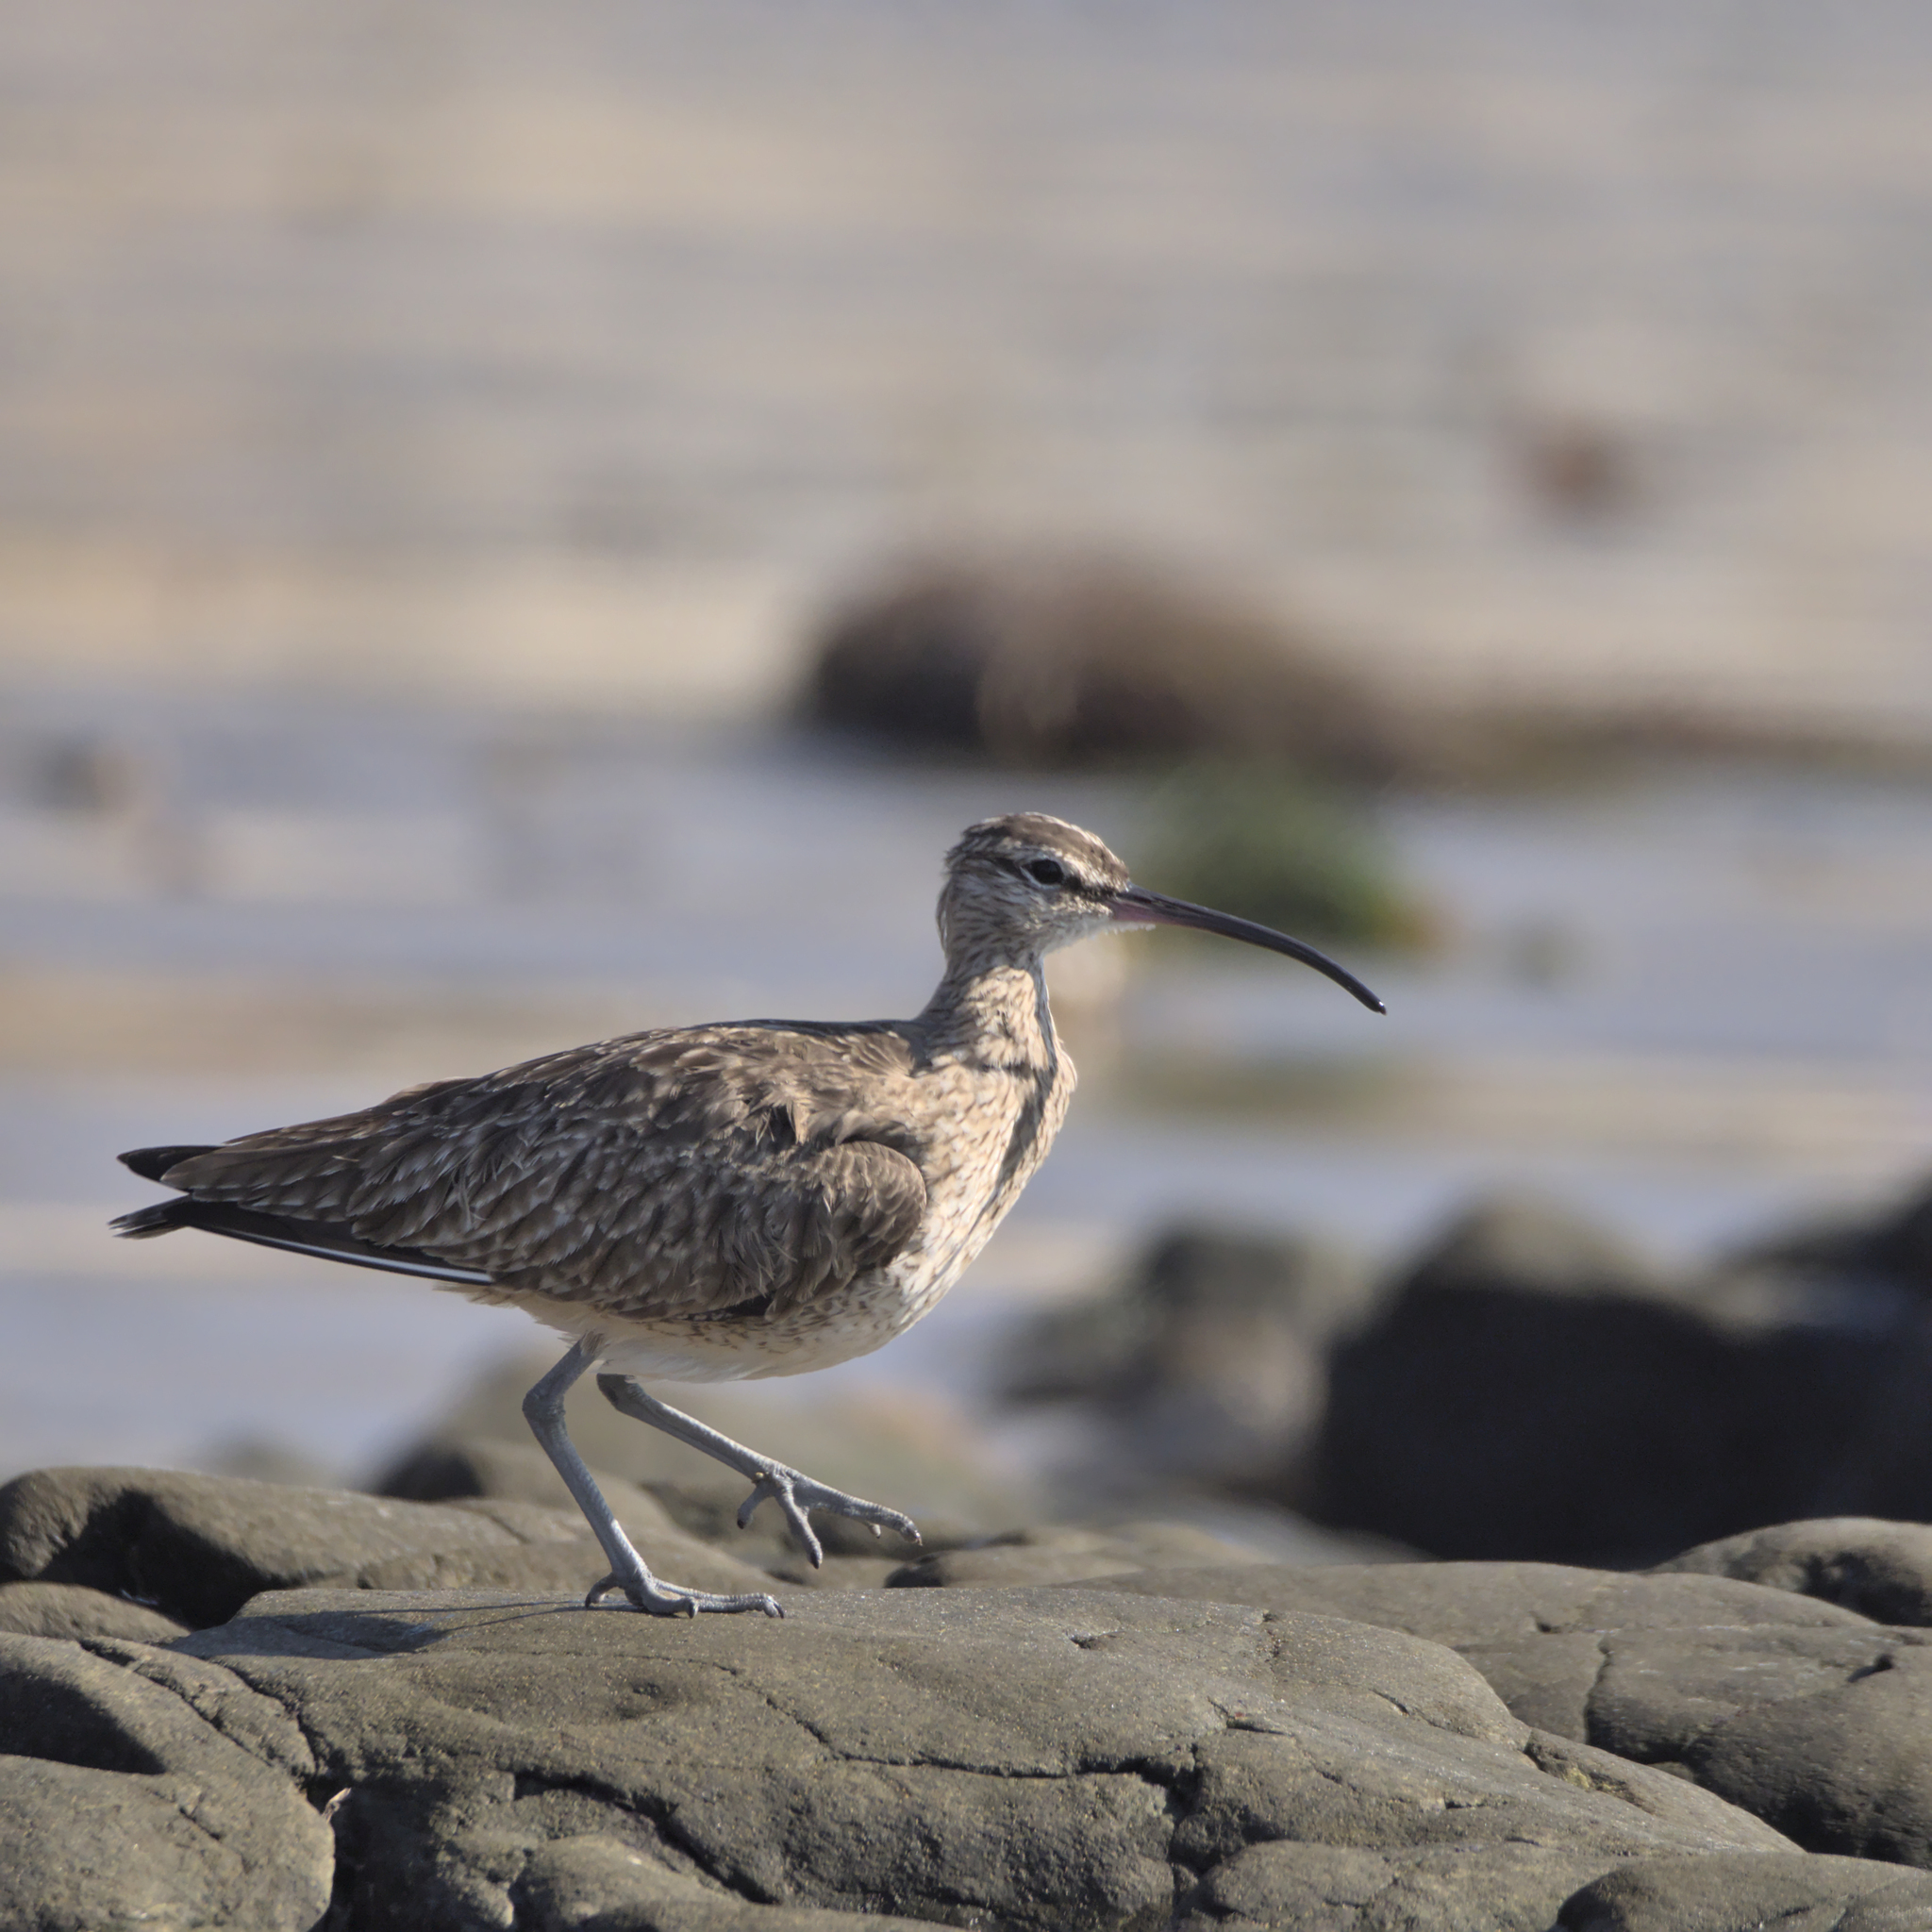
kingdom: Animalia
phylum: Chordata
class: Aves
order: Charadriiformes
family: Scolopacidae
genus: Numenius
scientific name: Numenius phaeopus
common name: Whimbrel
